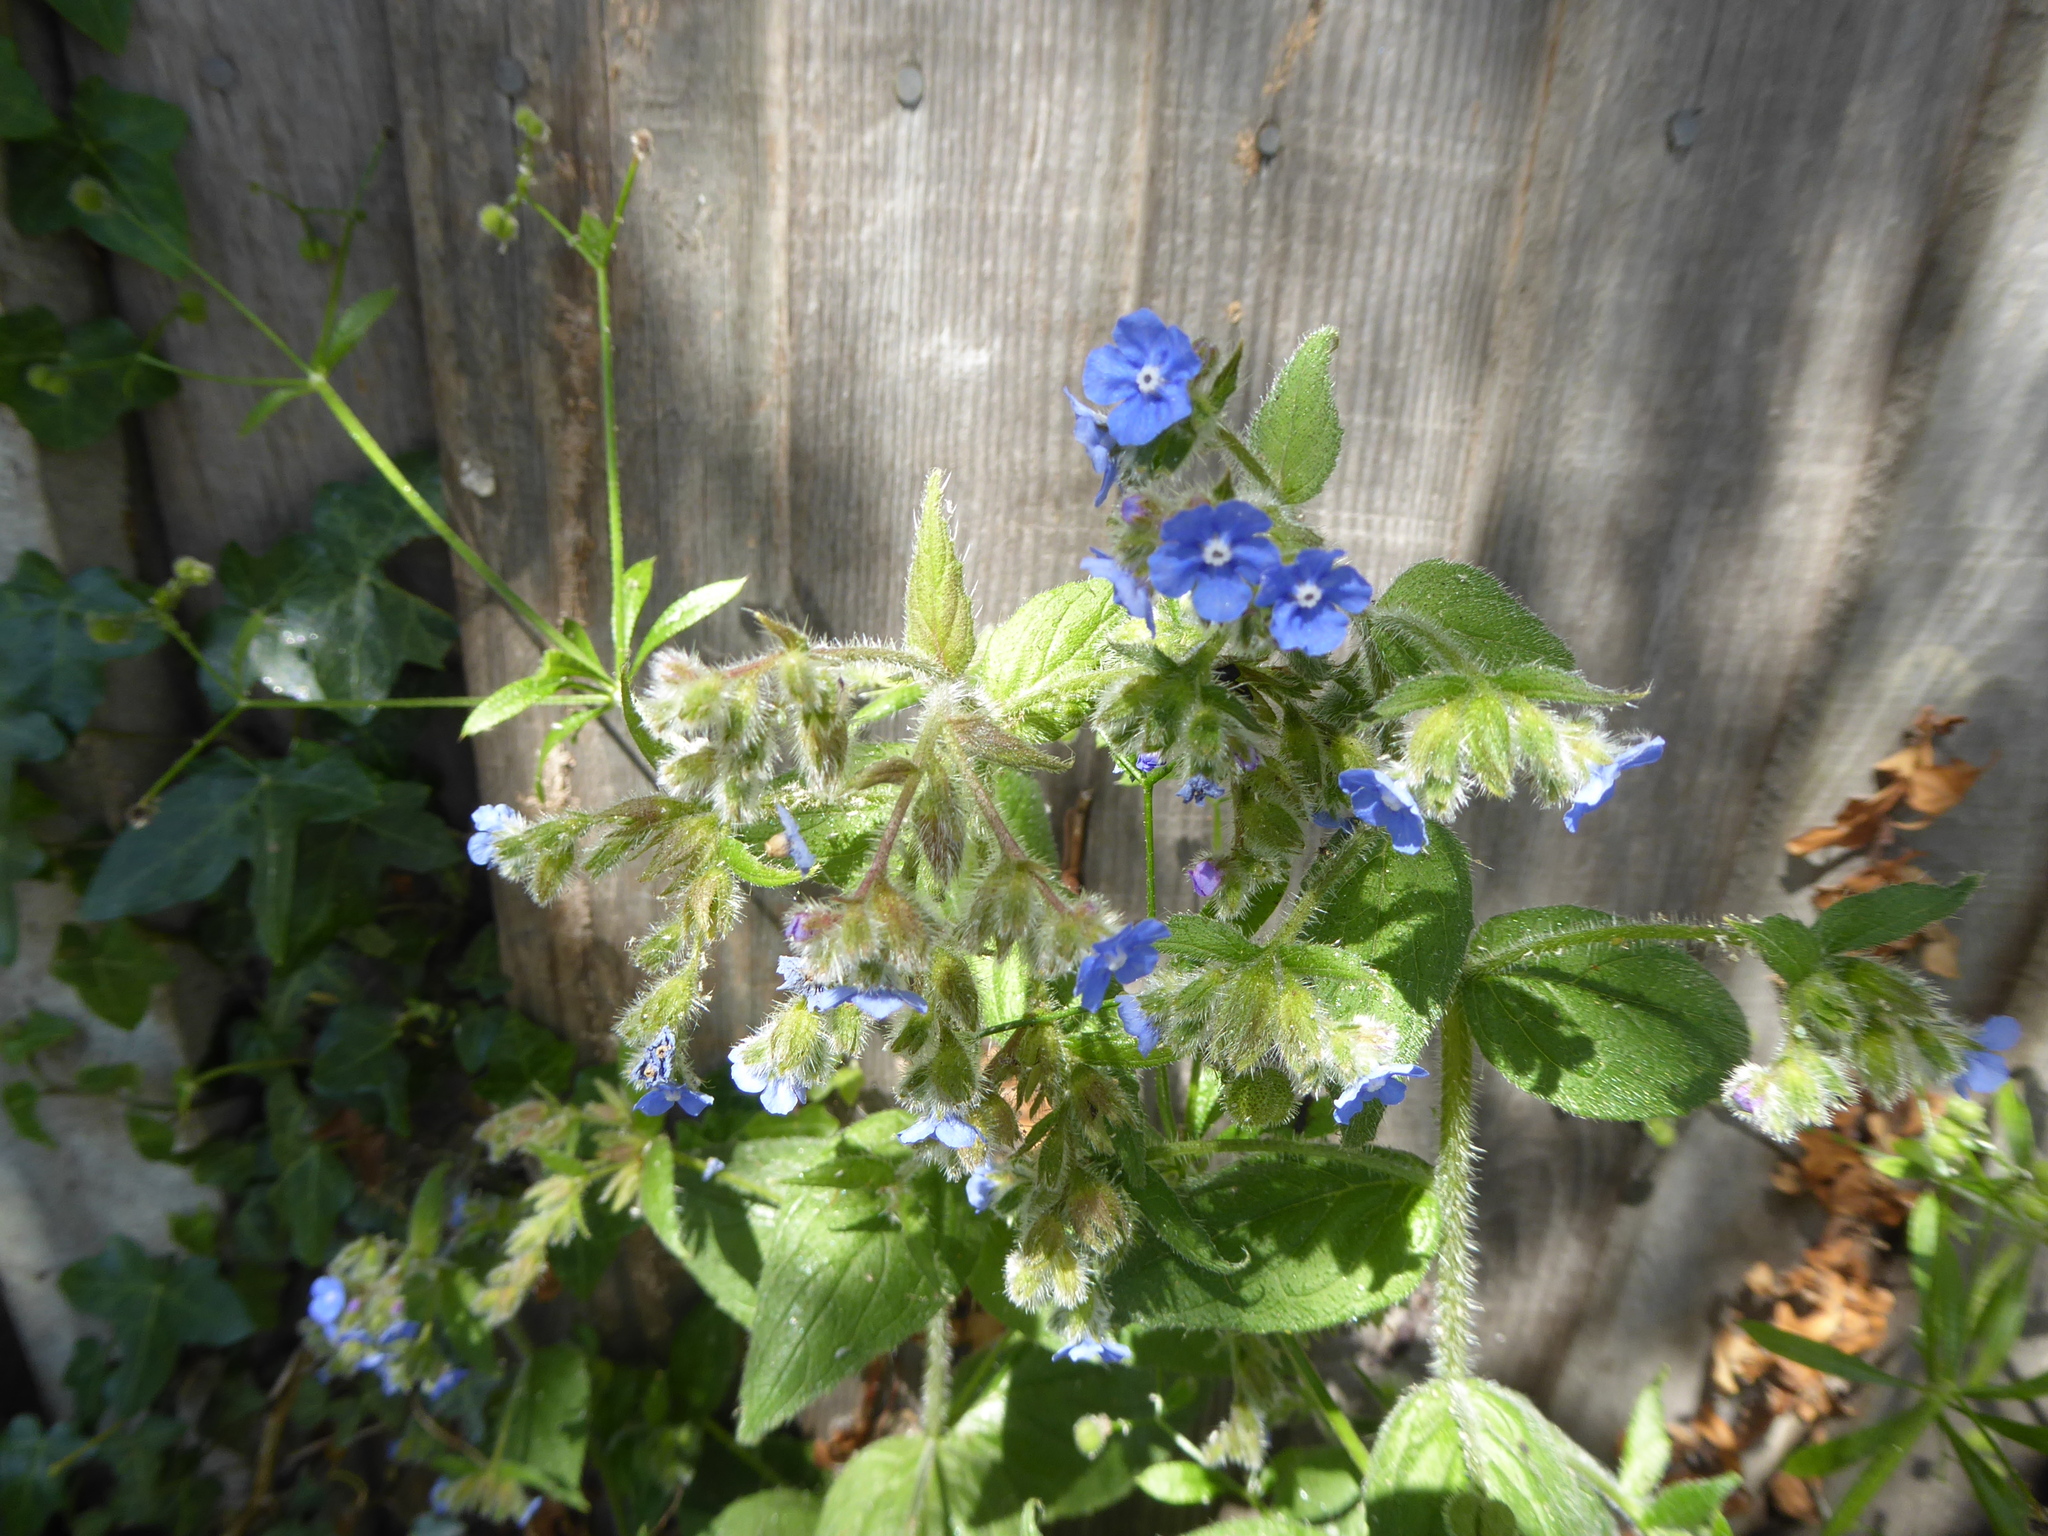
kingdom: Plantae
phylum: Tracheophyta
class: Magnoliopsida
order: Boraginales
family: Boraginaceae
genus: Pentaglottis
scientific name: Pentaglottis sempervirens
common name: Green alkanet
